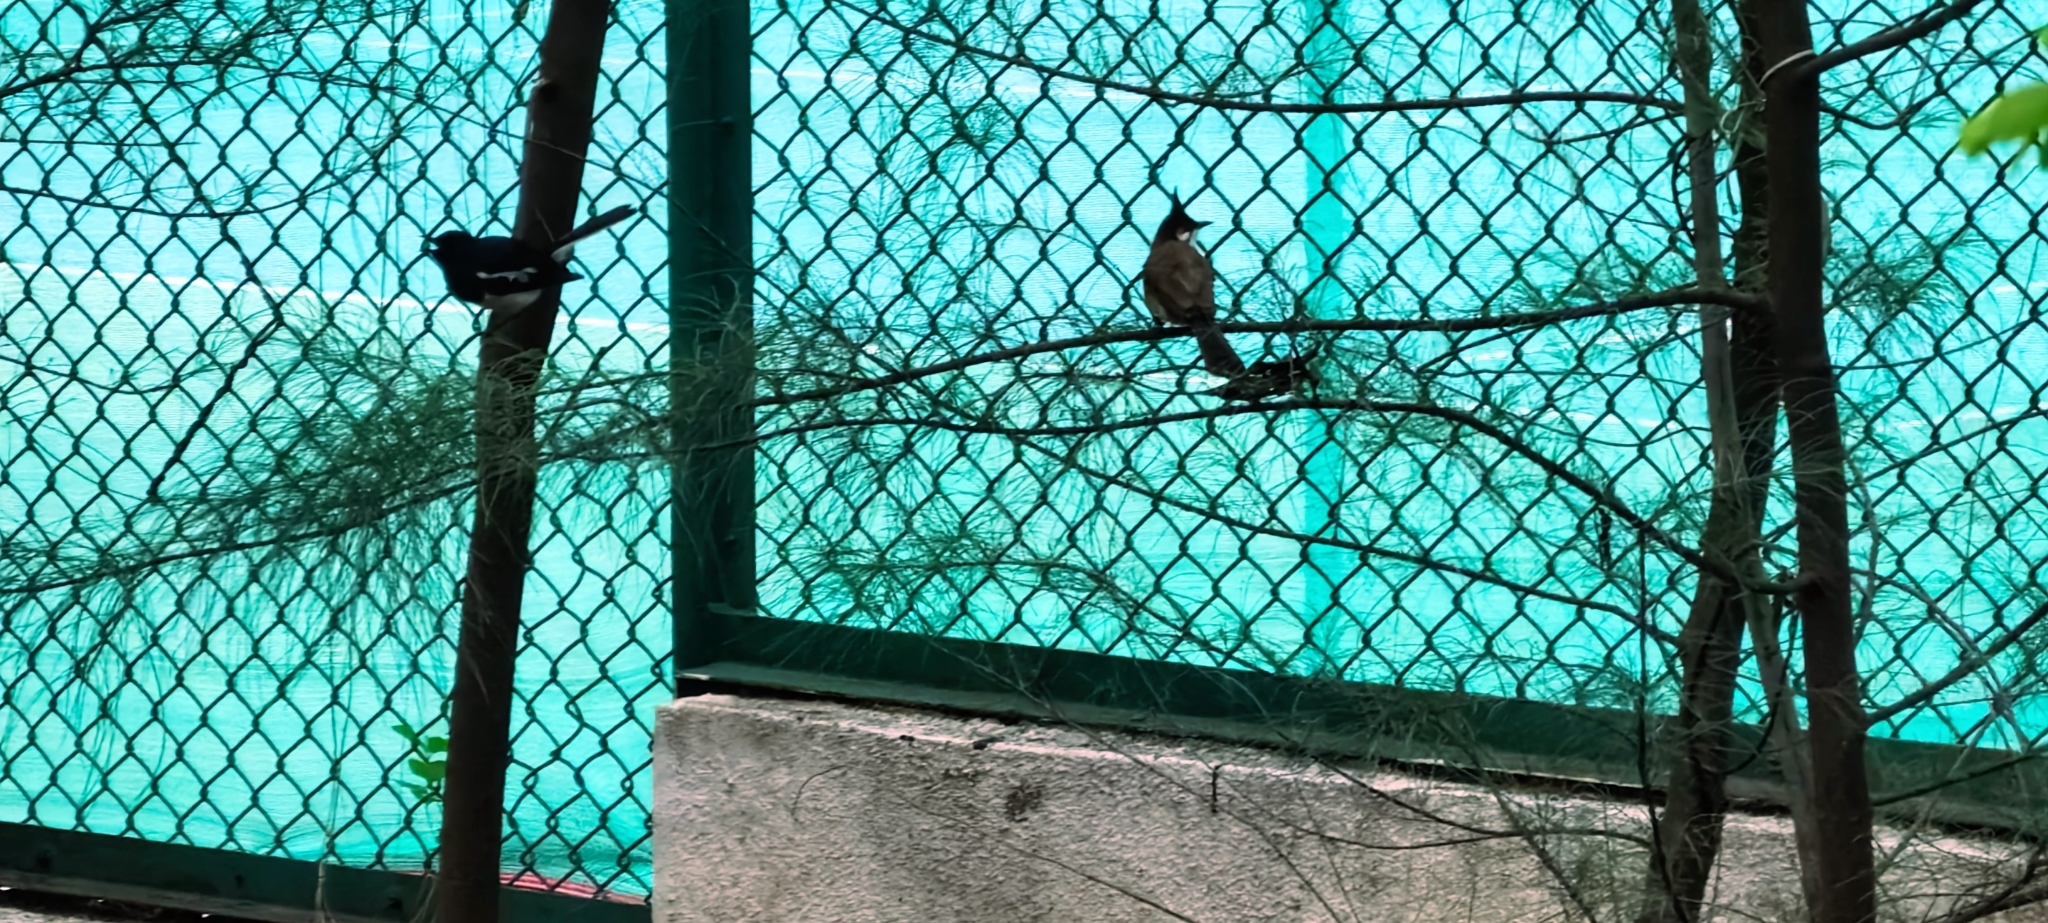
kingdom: Animalia
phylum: Chordata
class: Aves
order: Passeriformes
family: Pycnonotidae
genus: Pycnonotus
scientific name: Pycnonotus jocosus
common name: Red-whiskered bulbul
